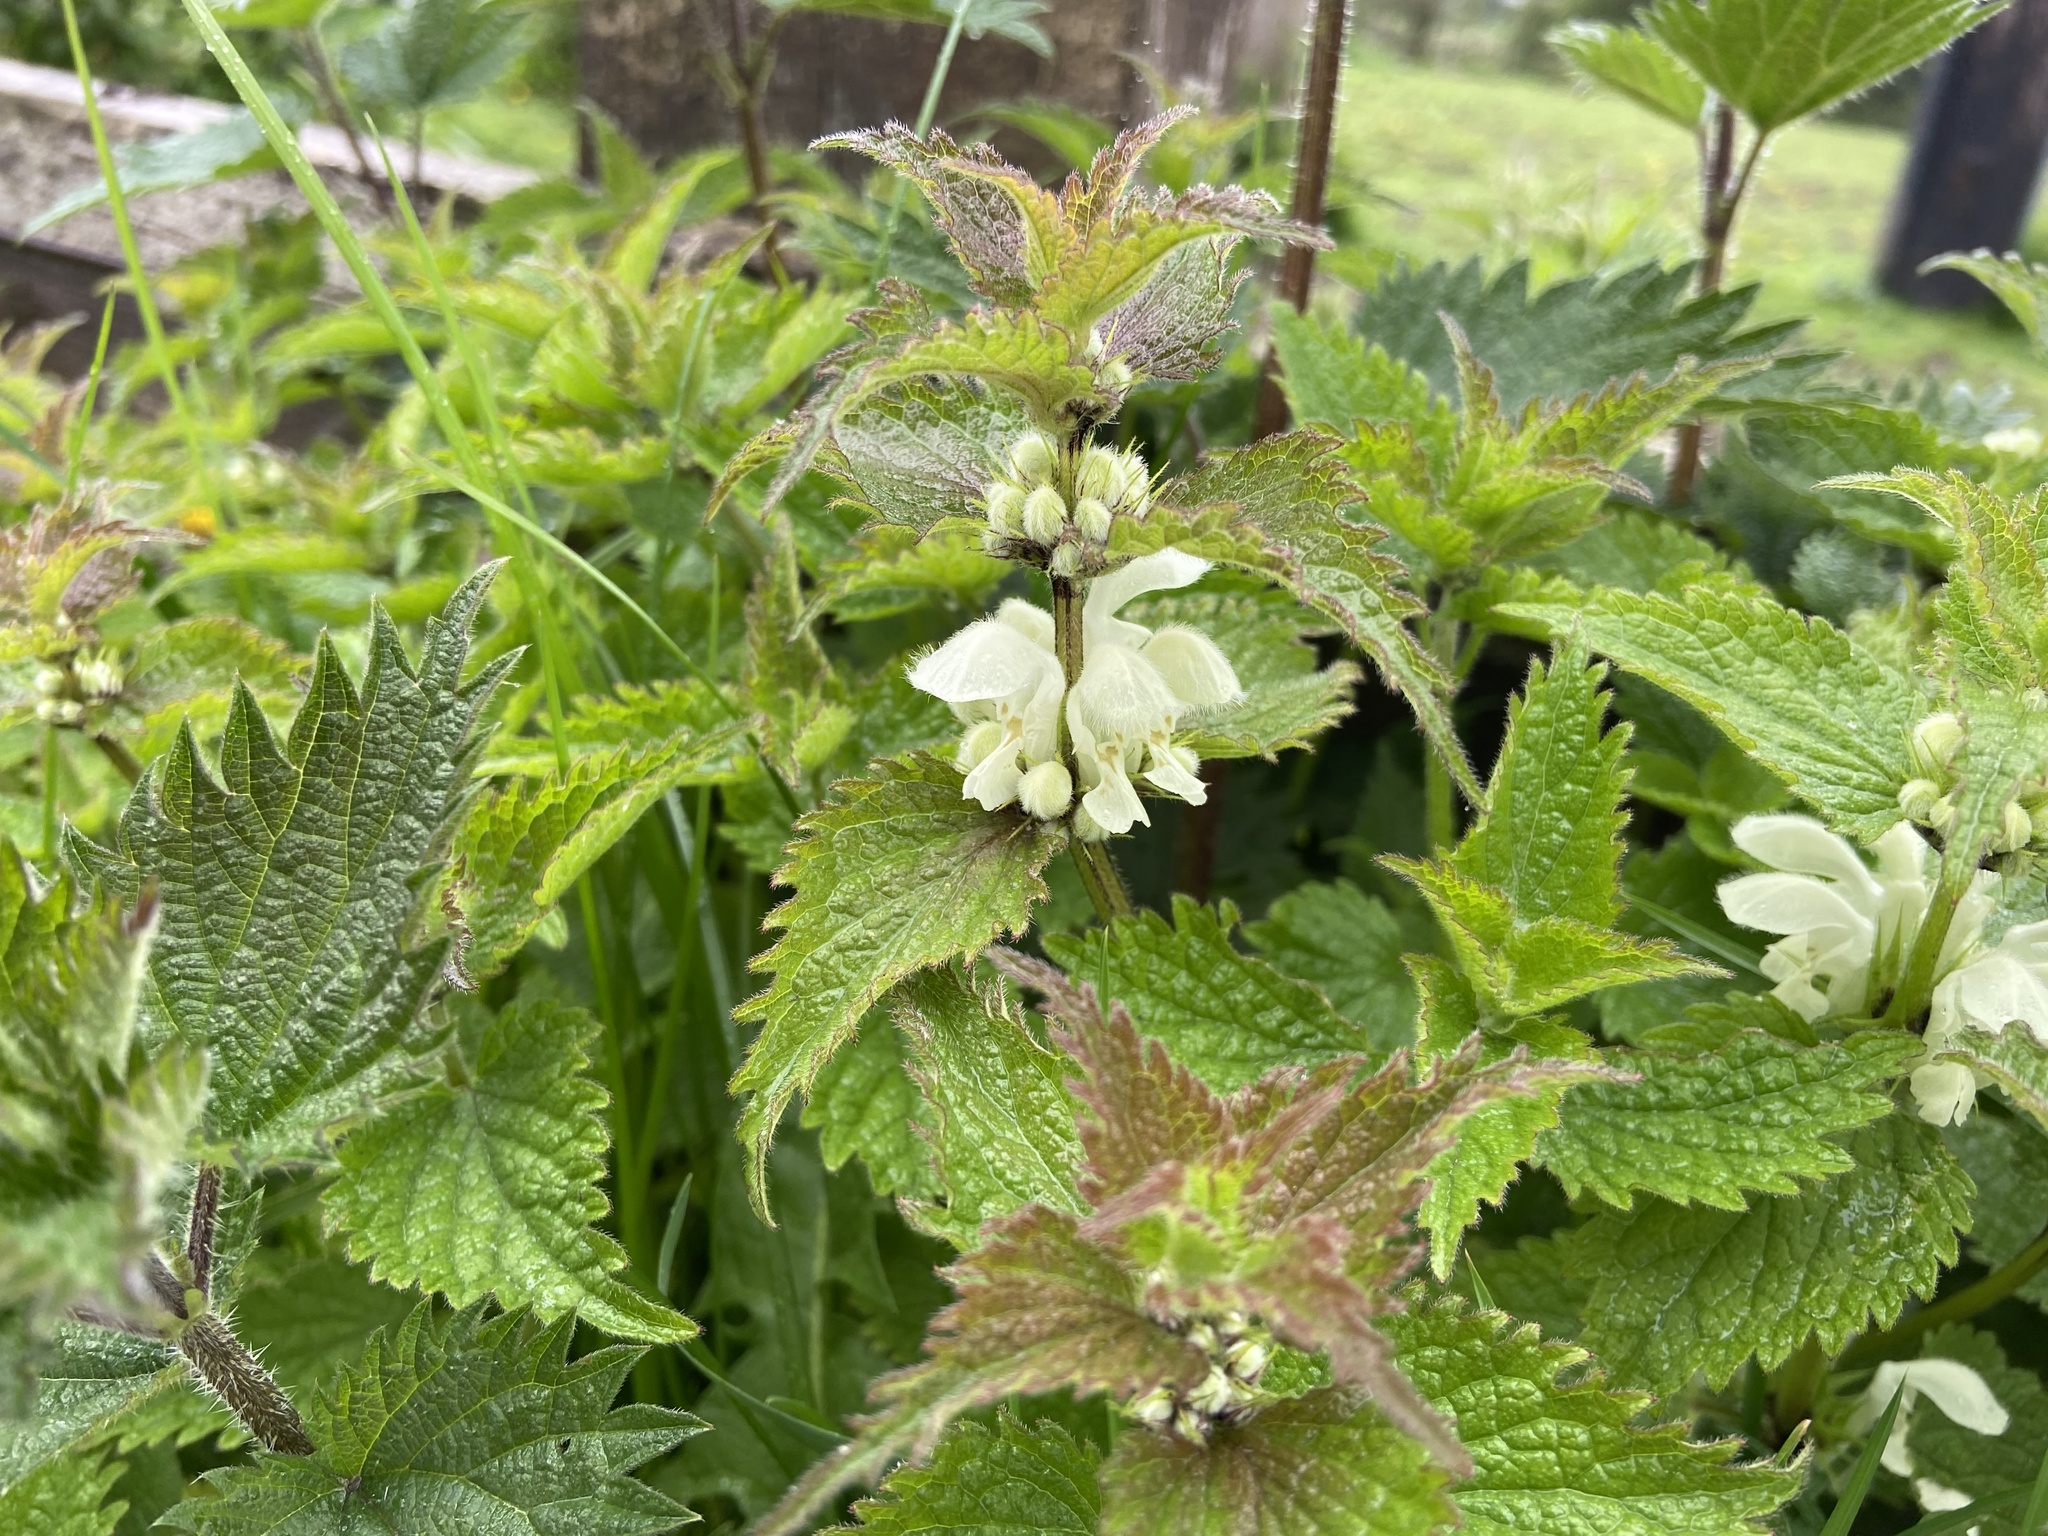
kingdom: Plantae
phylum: Tracheophyta
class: Magnoliopsida
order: Lamiales
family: Lamiaceae
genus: Lamium
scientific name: Lamium album
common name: White dead-nettle
